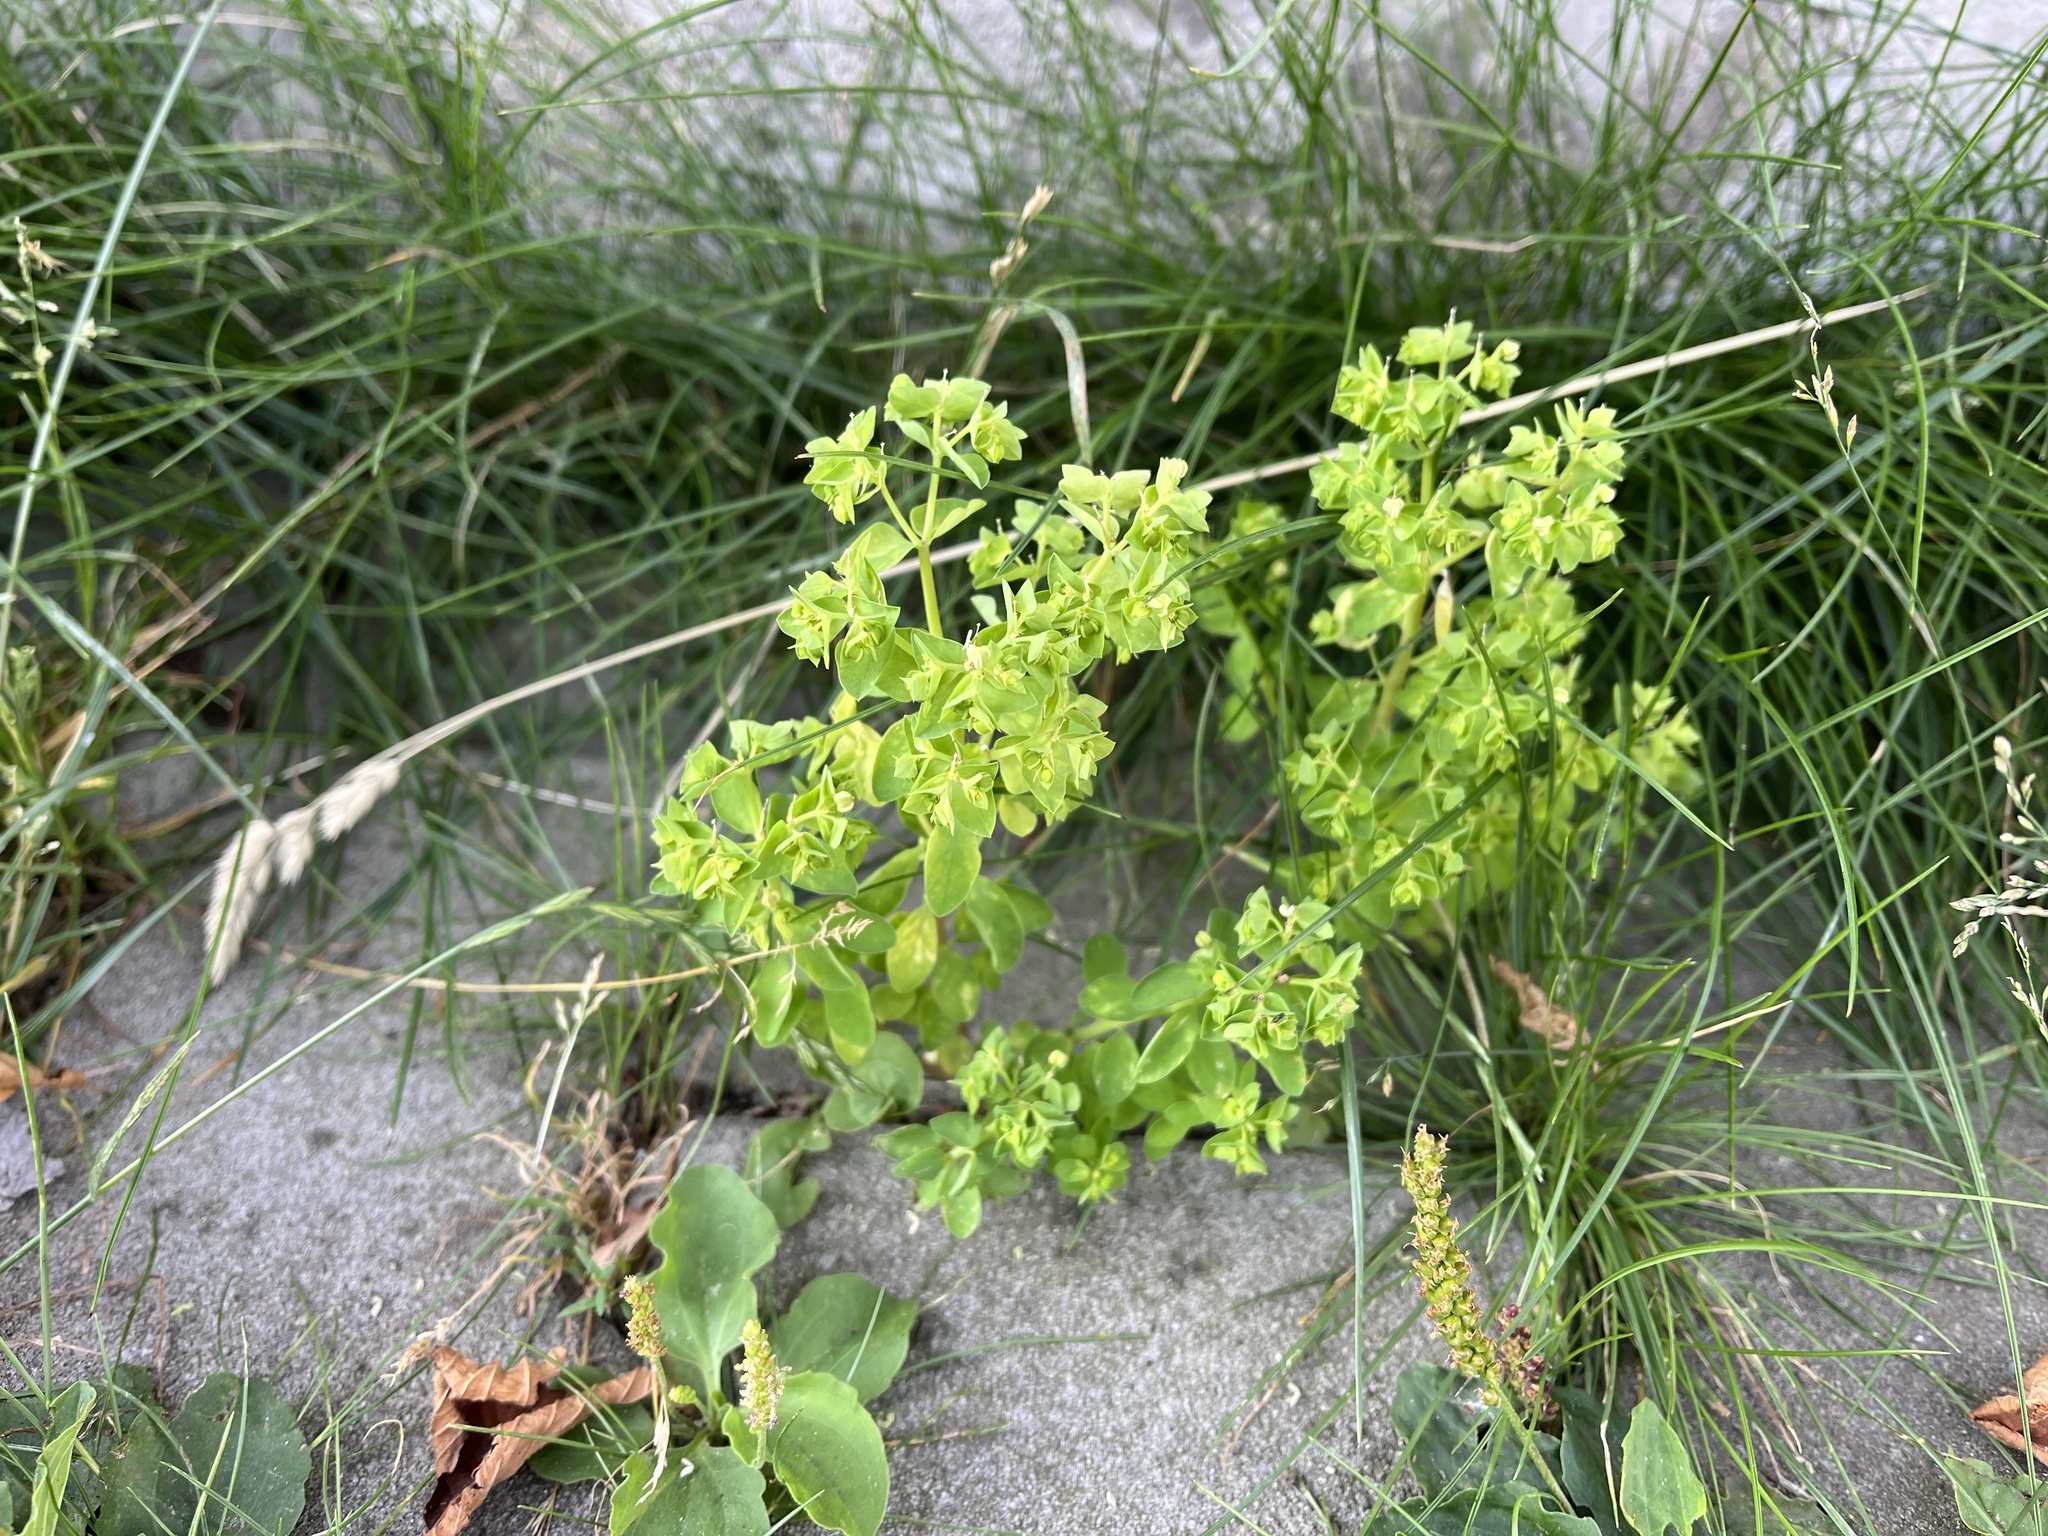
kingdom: Plantae
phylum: Tracheophyta
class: Magnoliopsida
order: Malpighiales
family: Euphorbiaceae
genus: Euphorbia
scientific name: Euphorbia peplus
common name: Petty spurge
